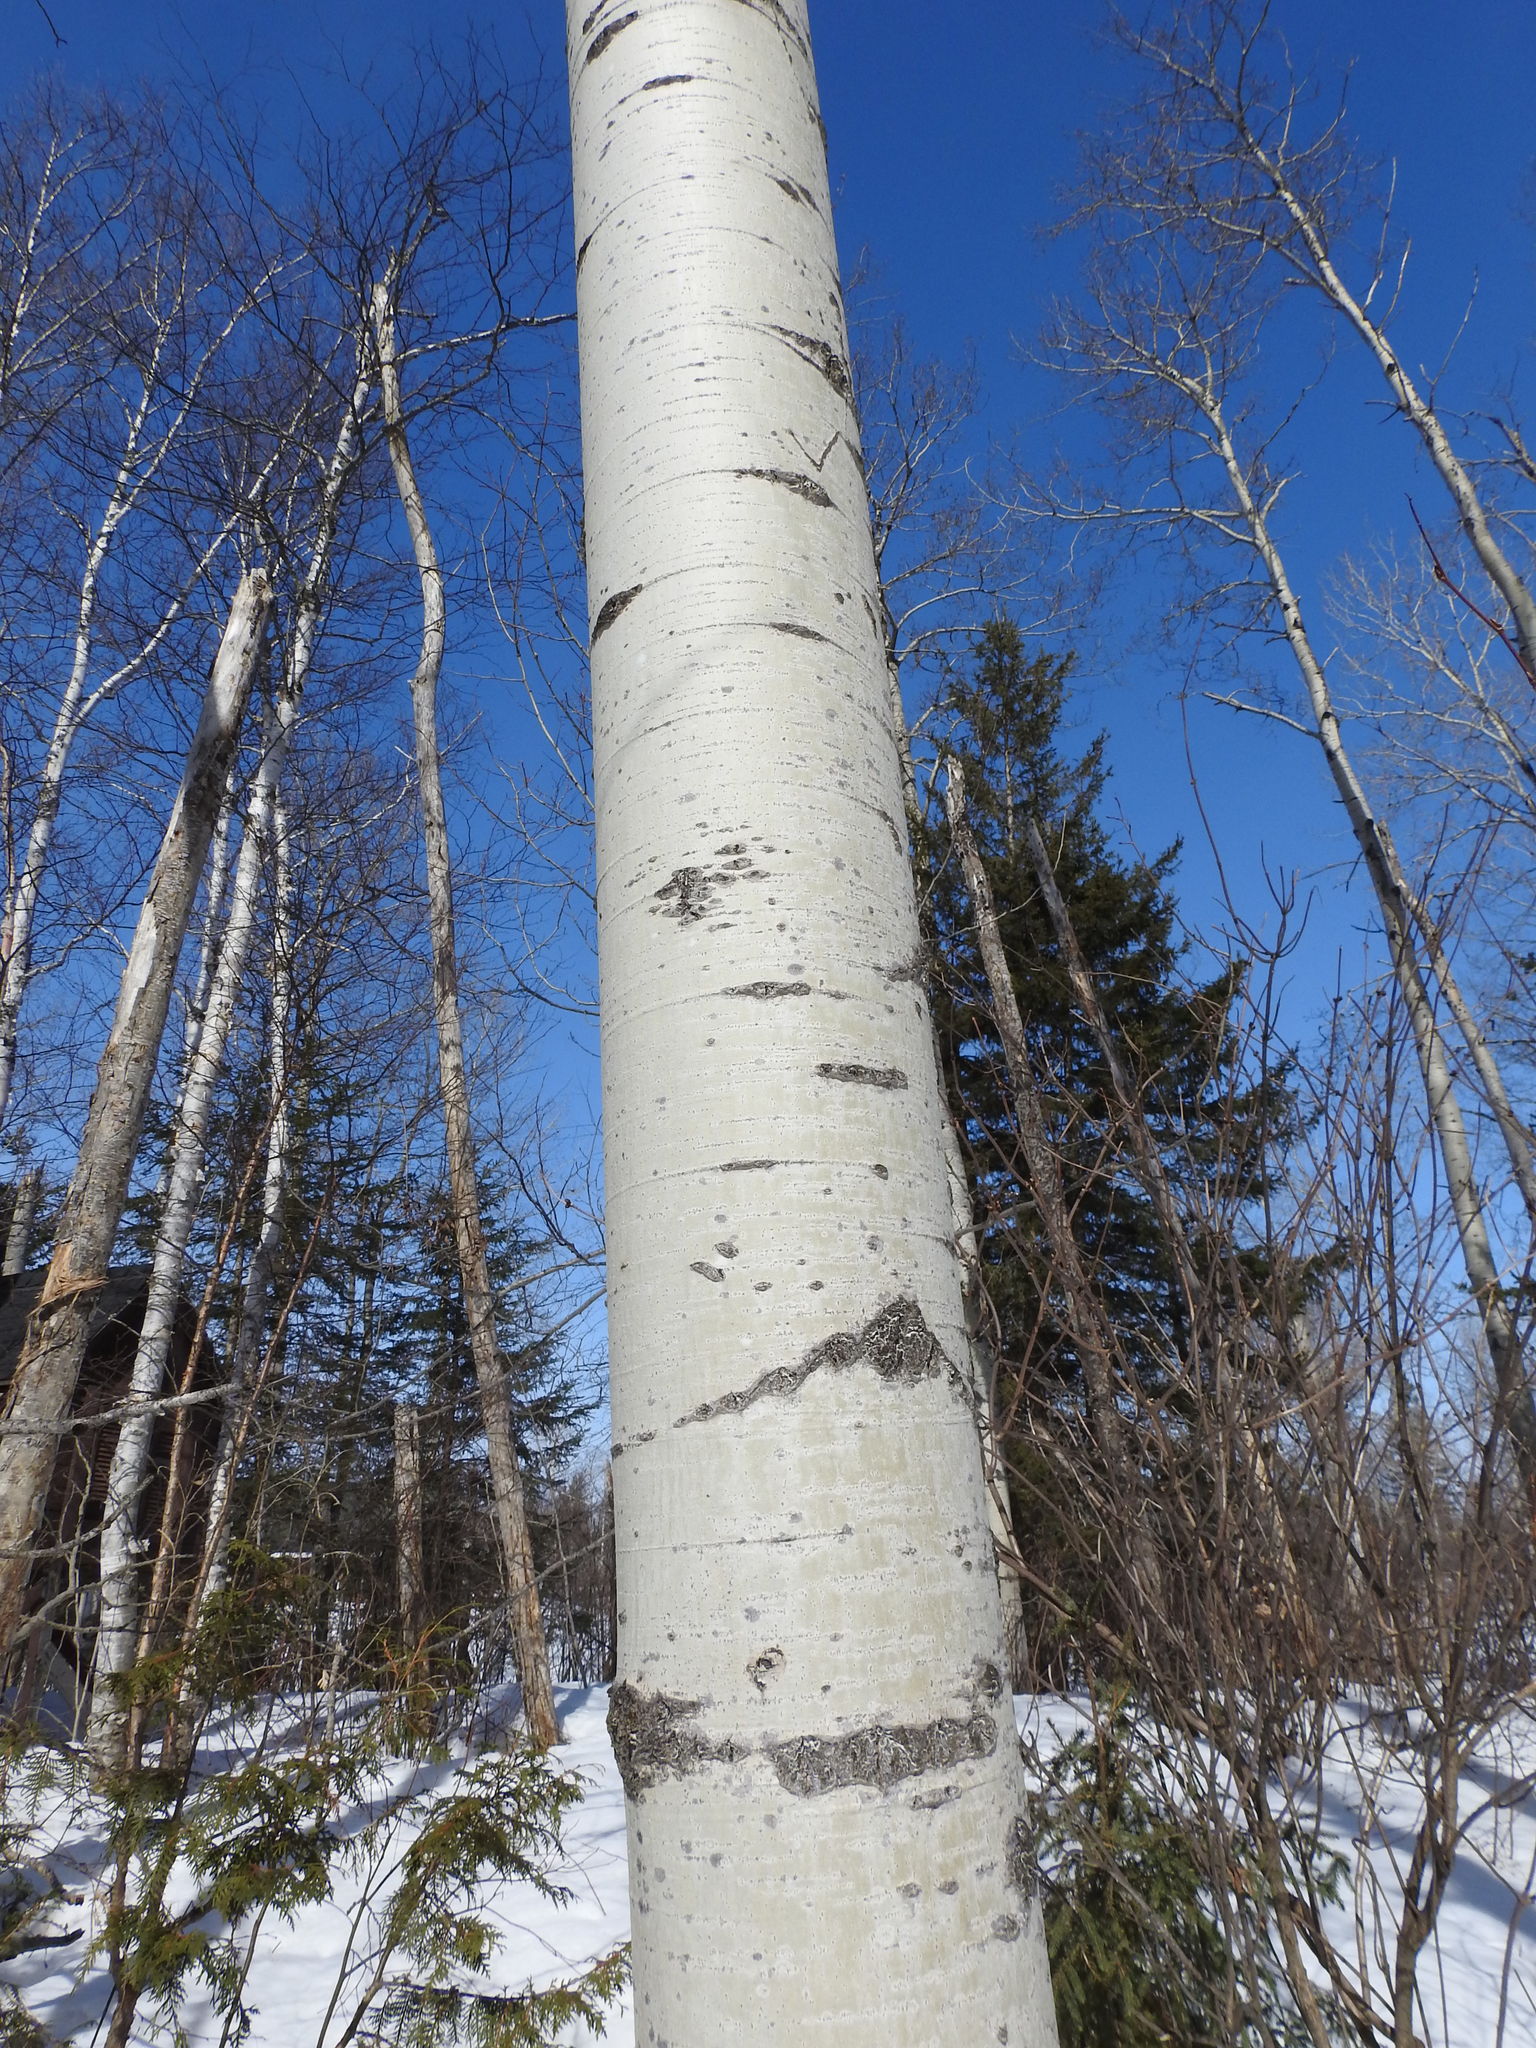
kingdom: Plantae
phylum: Tracheophyta
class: Magnoliopsida
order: Malpighiales
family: Salicaceae
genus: Populus
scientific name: Populus tremuloides
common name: Quaking aspen
